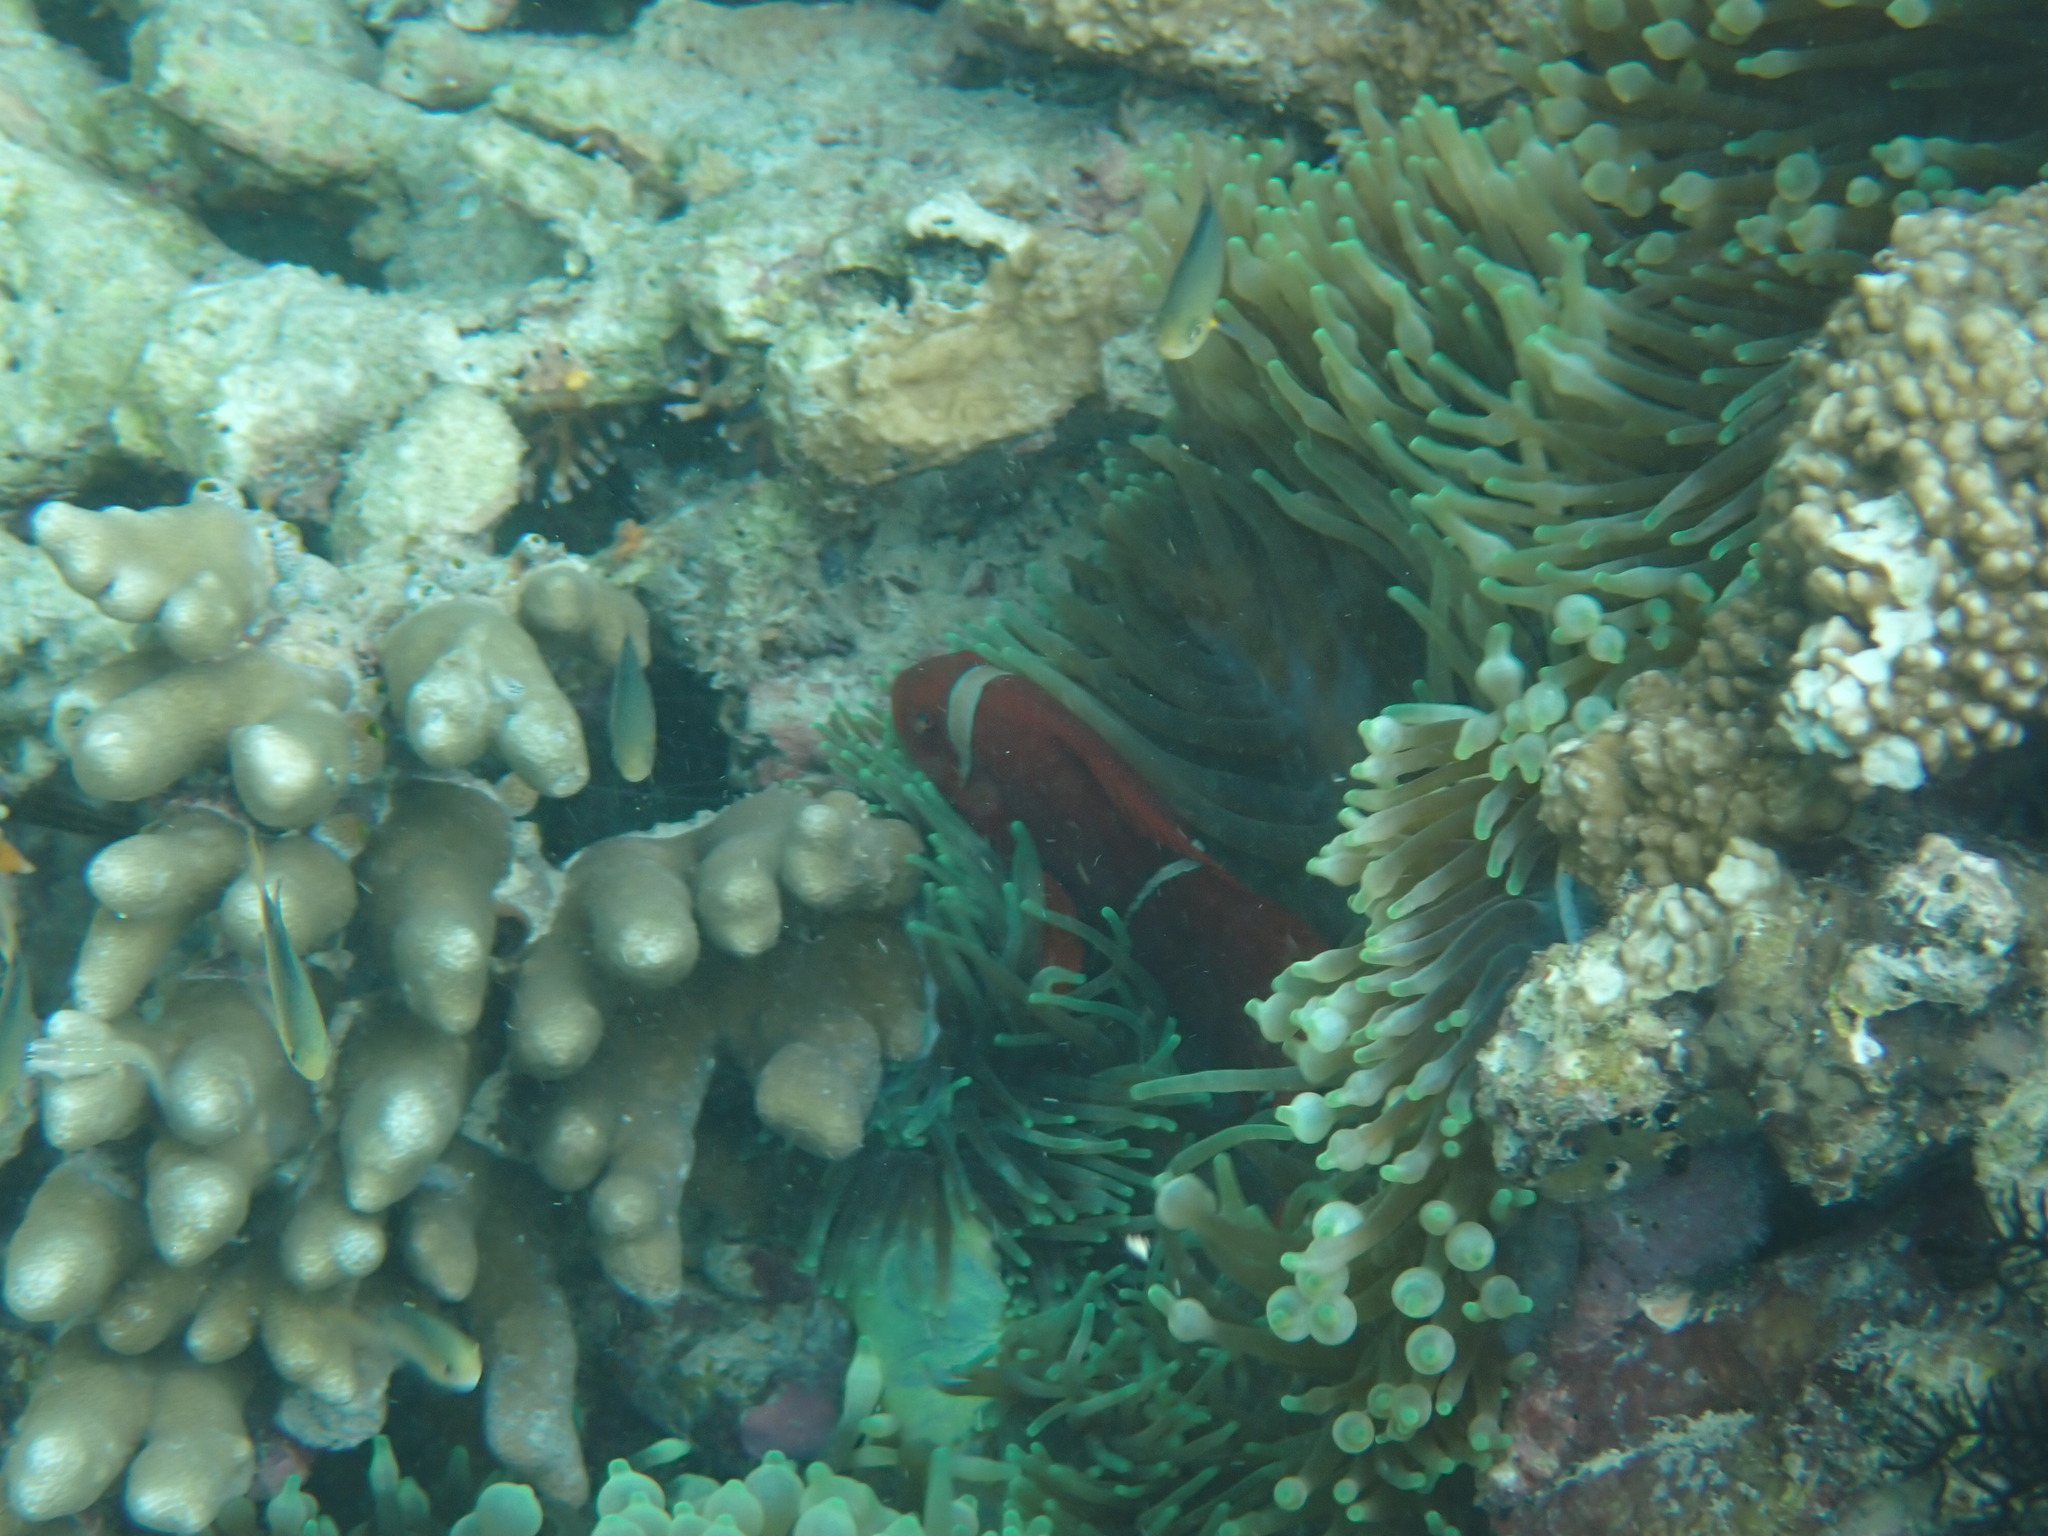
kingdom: Animalia
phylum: Chordata
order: Perciformes
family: Pomacentridae
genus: Premnas
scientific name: Premnas biaculeatus
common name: Spinecheek anemonefish
